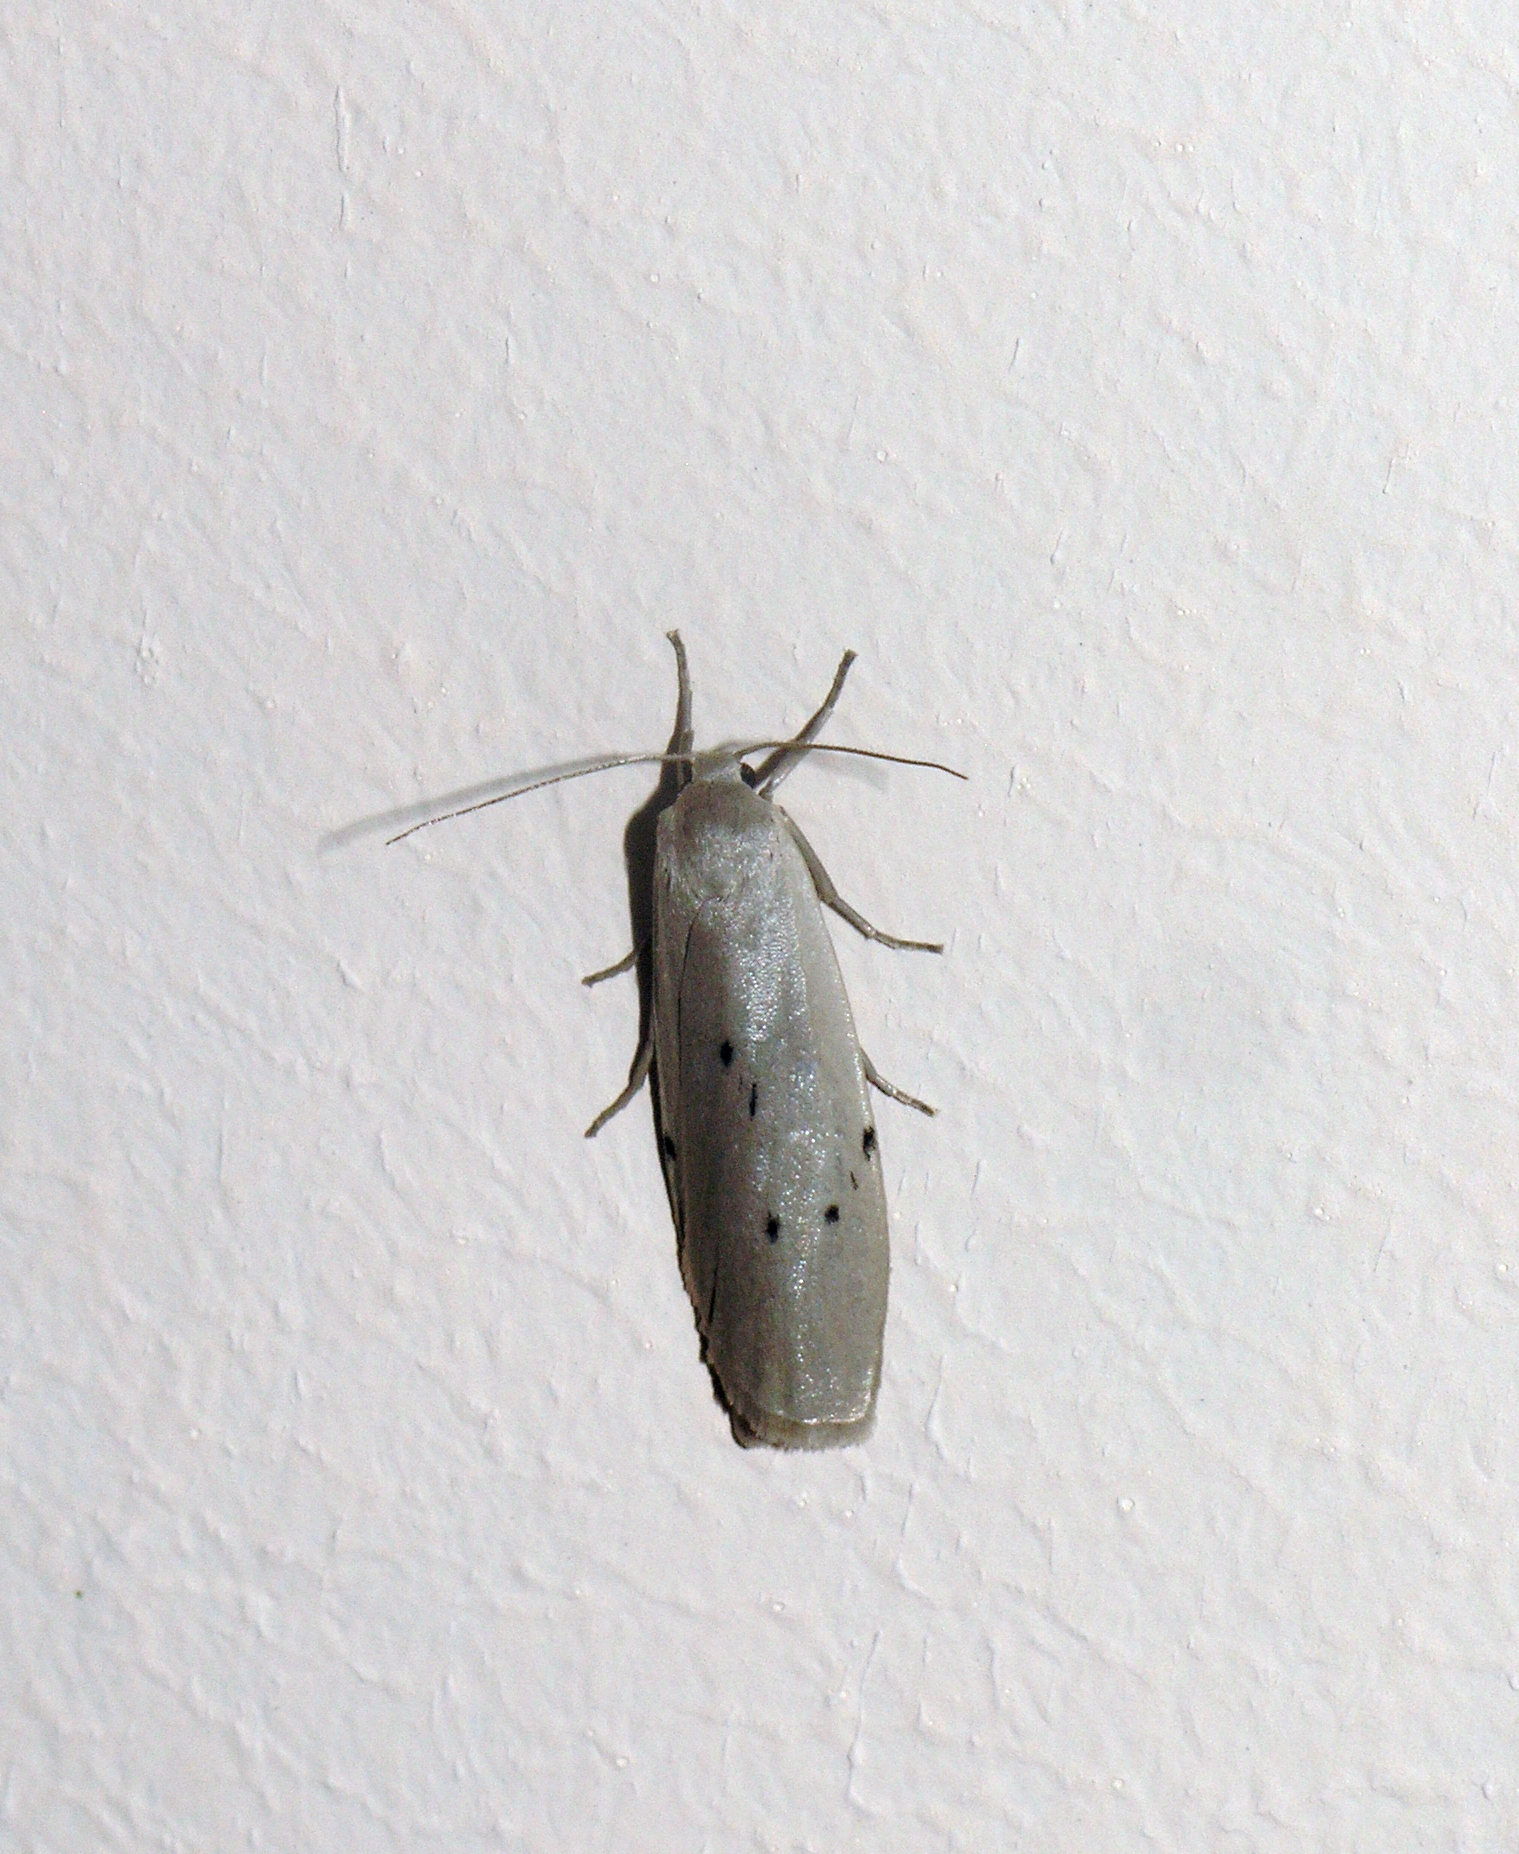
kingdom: Animalia
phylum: Arthropoda
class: Insecta
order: Lepidoptera
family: Erebidae
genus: Pelosia
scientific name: Pelosia muscerda
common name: Dotted footman
